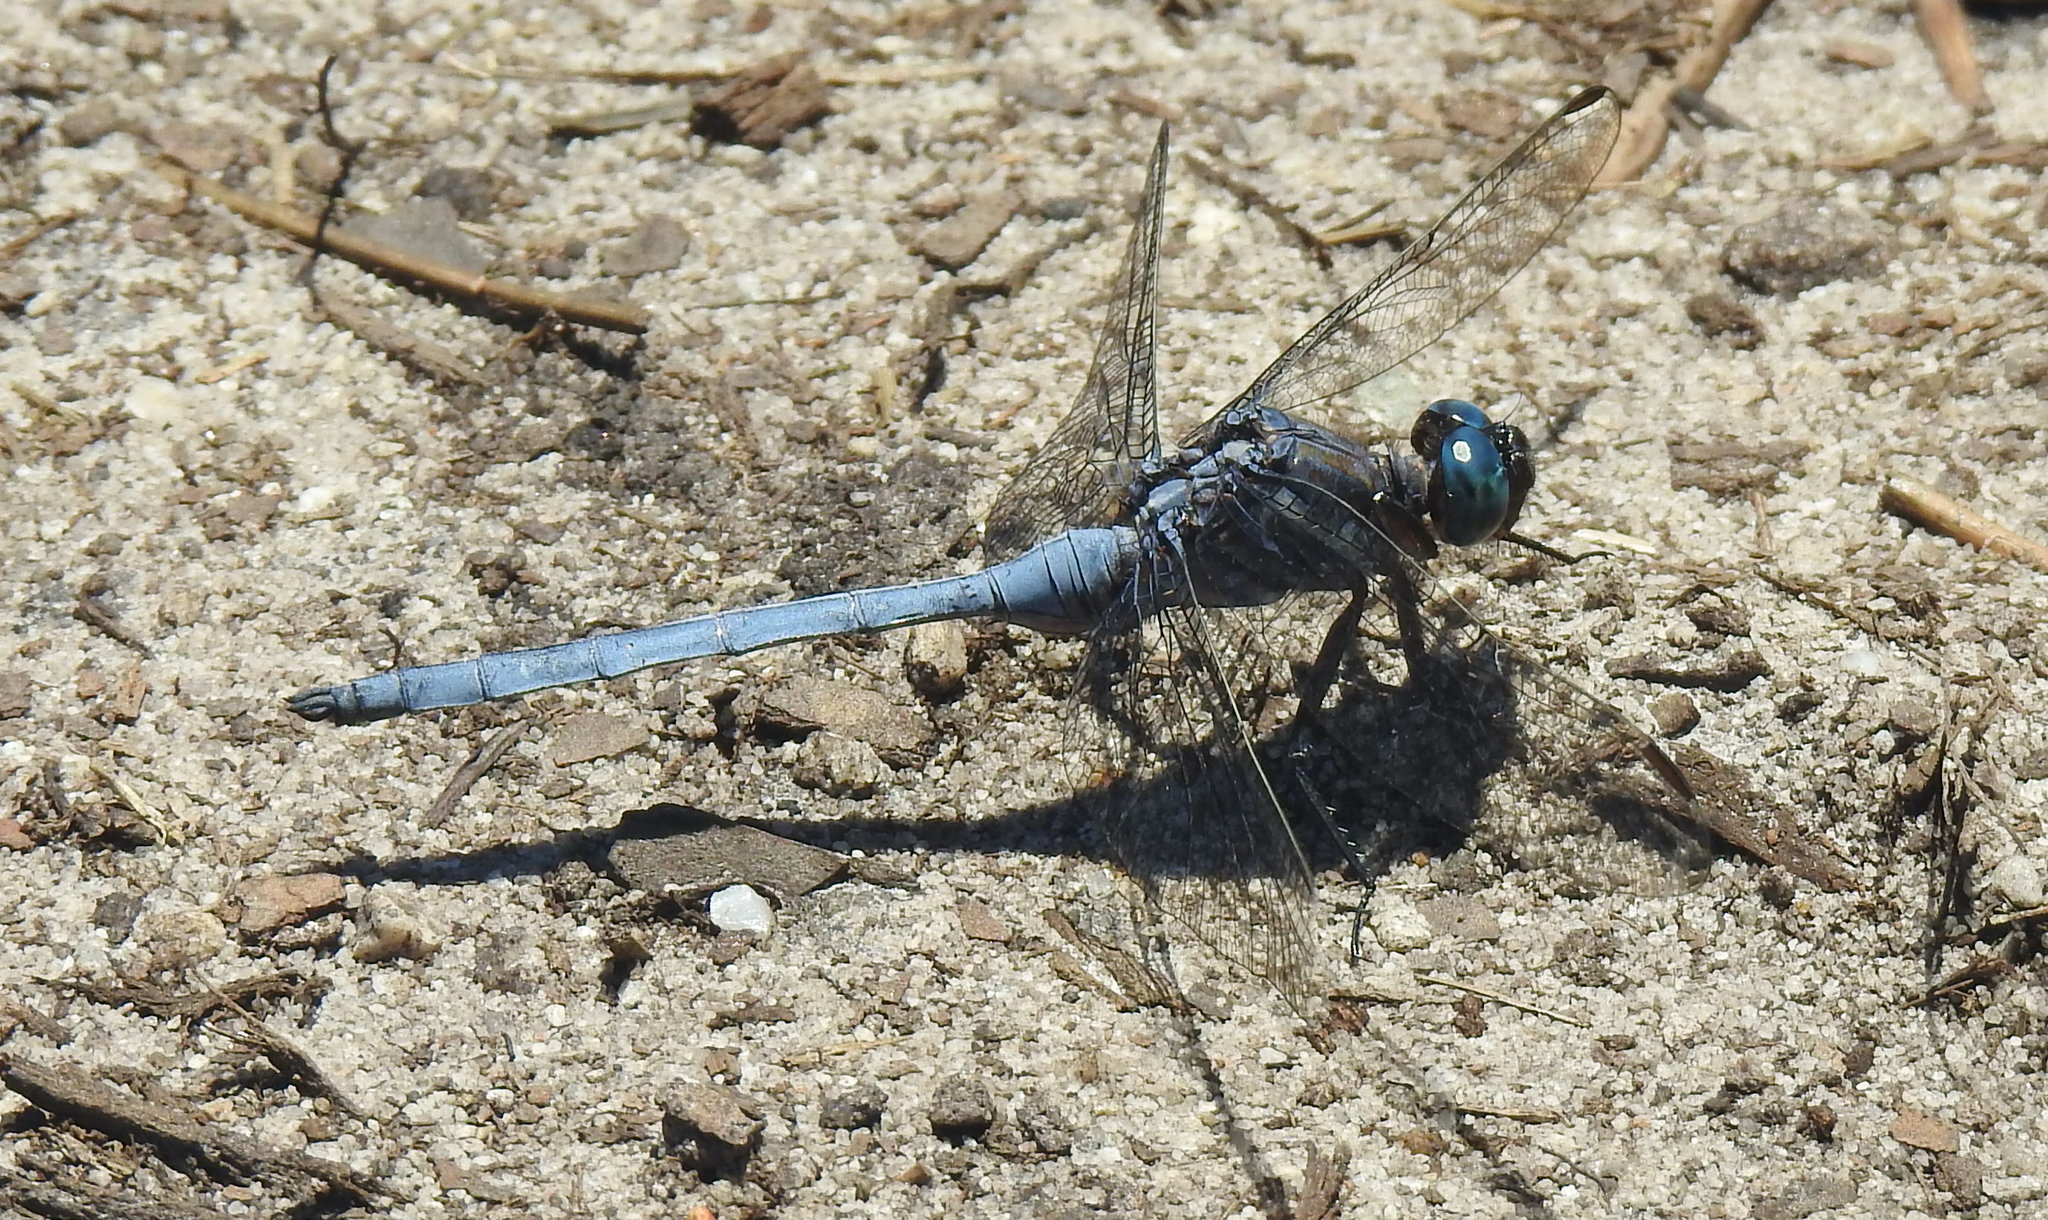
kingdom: Animalia
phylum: Arthropoda
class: Insecta
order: Odonata
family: Libellulidae
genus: Orthetrum
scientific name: Orthetrum julia
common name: Julia skimmer
